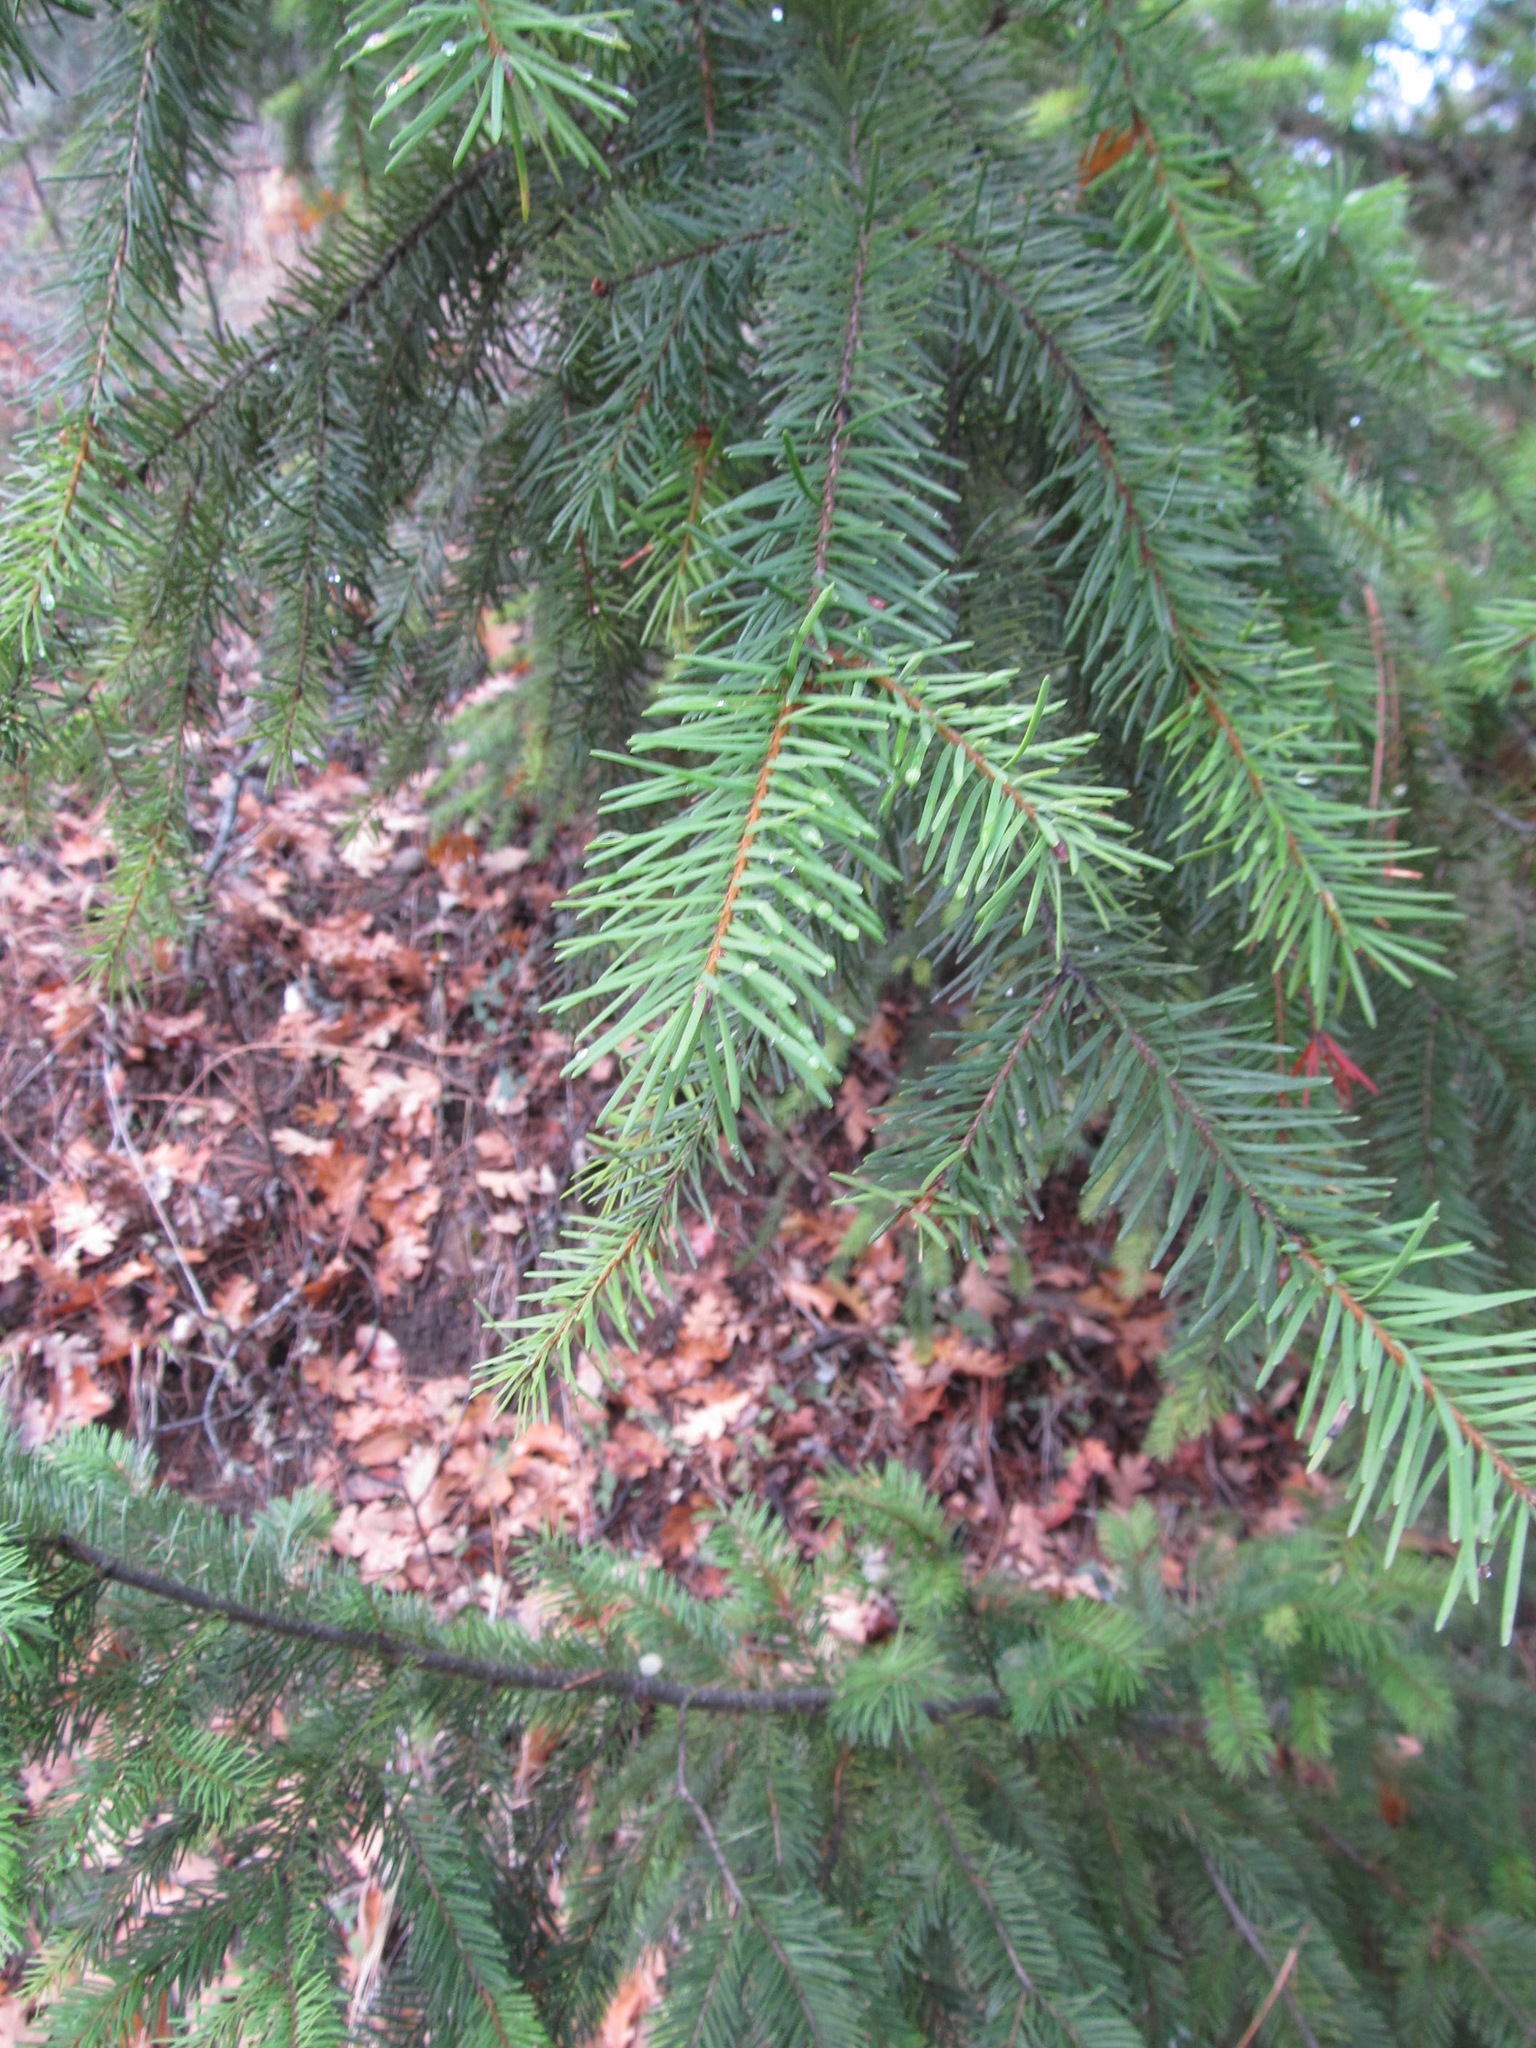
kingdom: Plantae
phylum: Tracheophyta
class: Pinopsida
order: Pinales
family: Pinaceae
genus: Pseudotsuga
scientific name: Pseudotsuga menziesii
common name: Douglas fir
